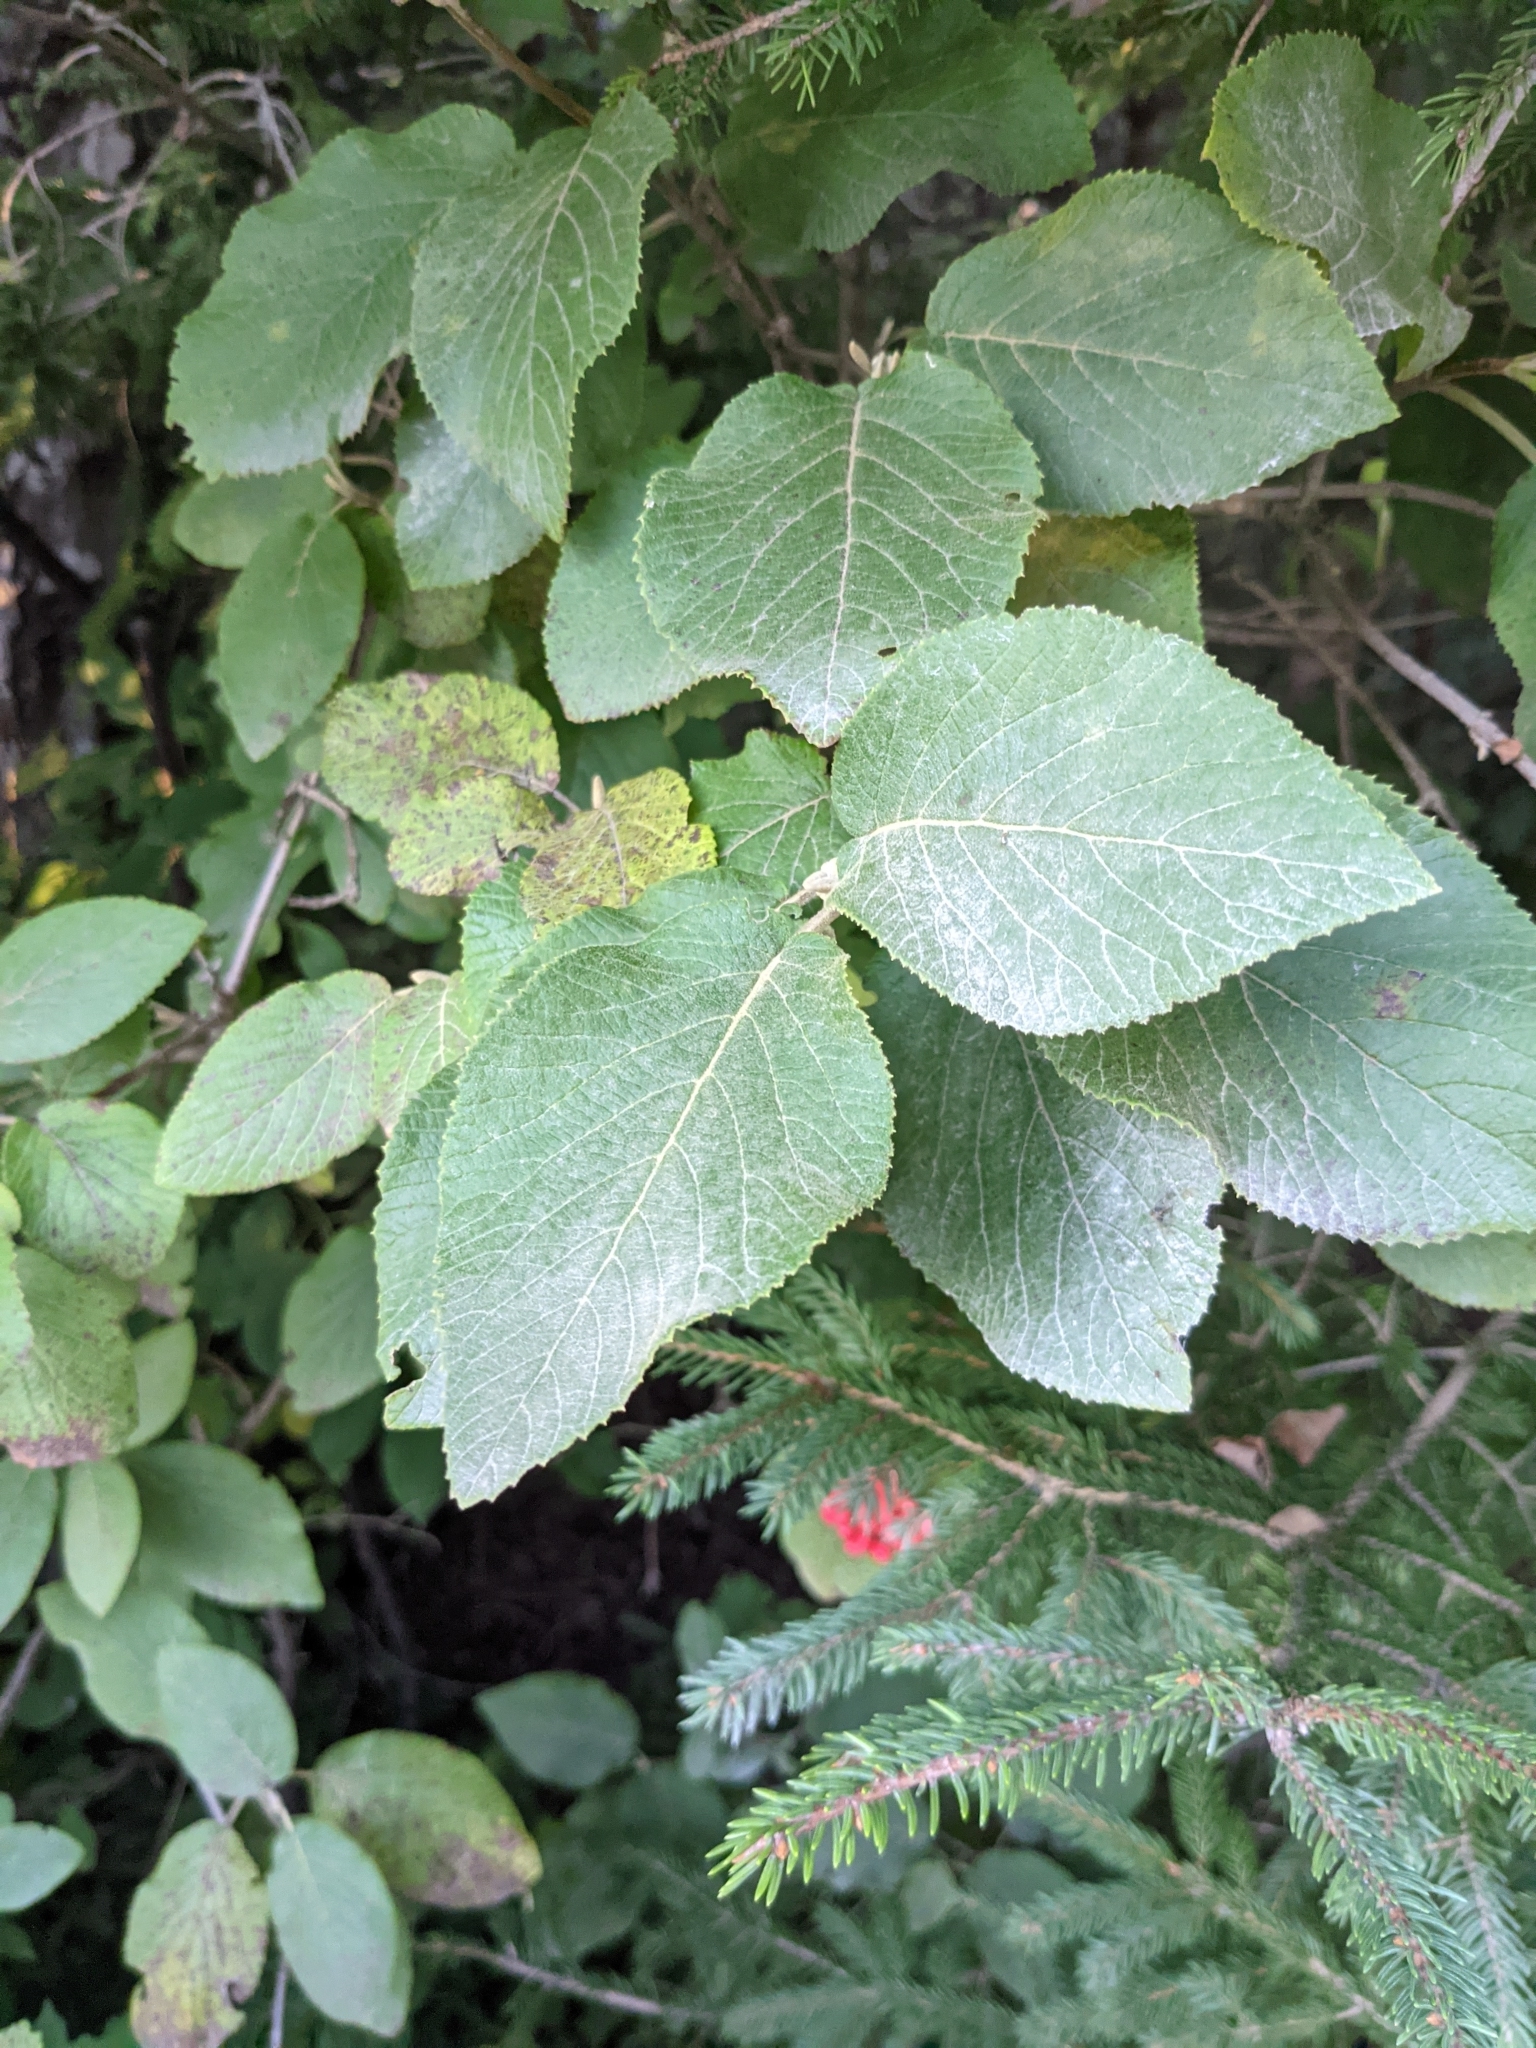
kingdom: Plantae
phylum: Tracheophyta
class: Magnoliopsida
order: Dipsacales
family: Viburnaceae
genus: Viburnum
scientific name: Viburnum lantana
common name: Wayfaring tree
